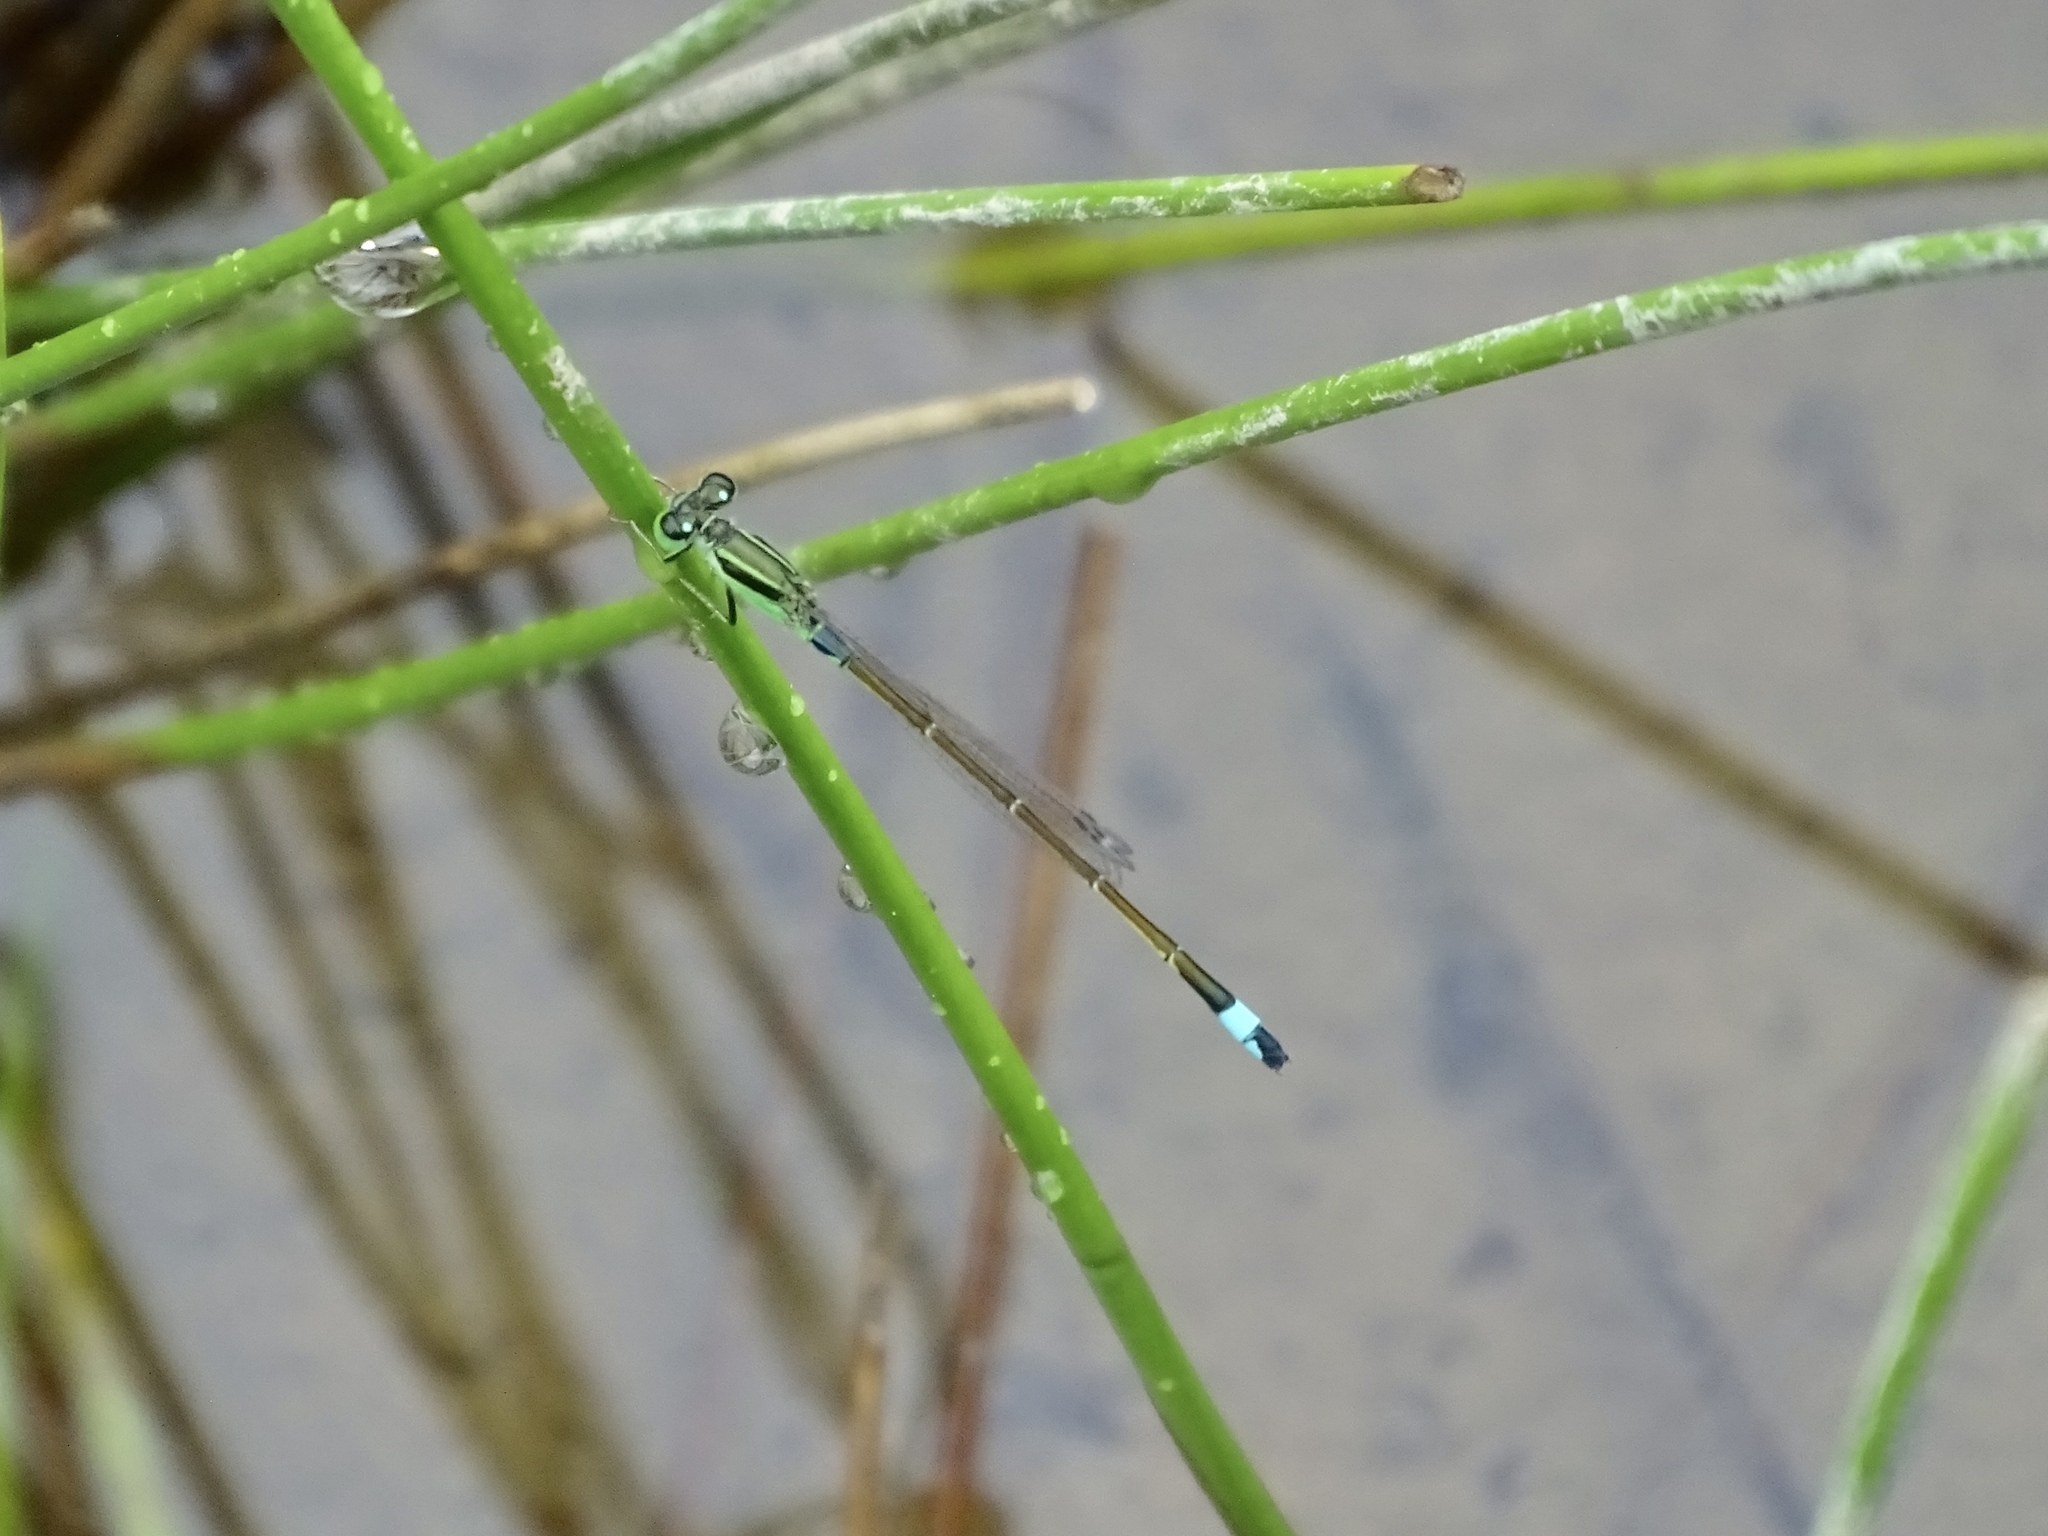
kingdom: Animalia
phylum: Arthropoda
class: Insecta
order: Odonata
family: Coenagrionidae
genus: Ischnura
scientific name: Ischnura senegalensis
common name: Tropical bluetail
